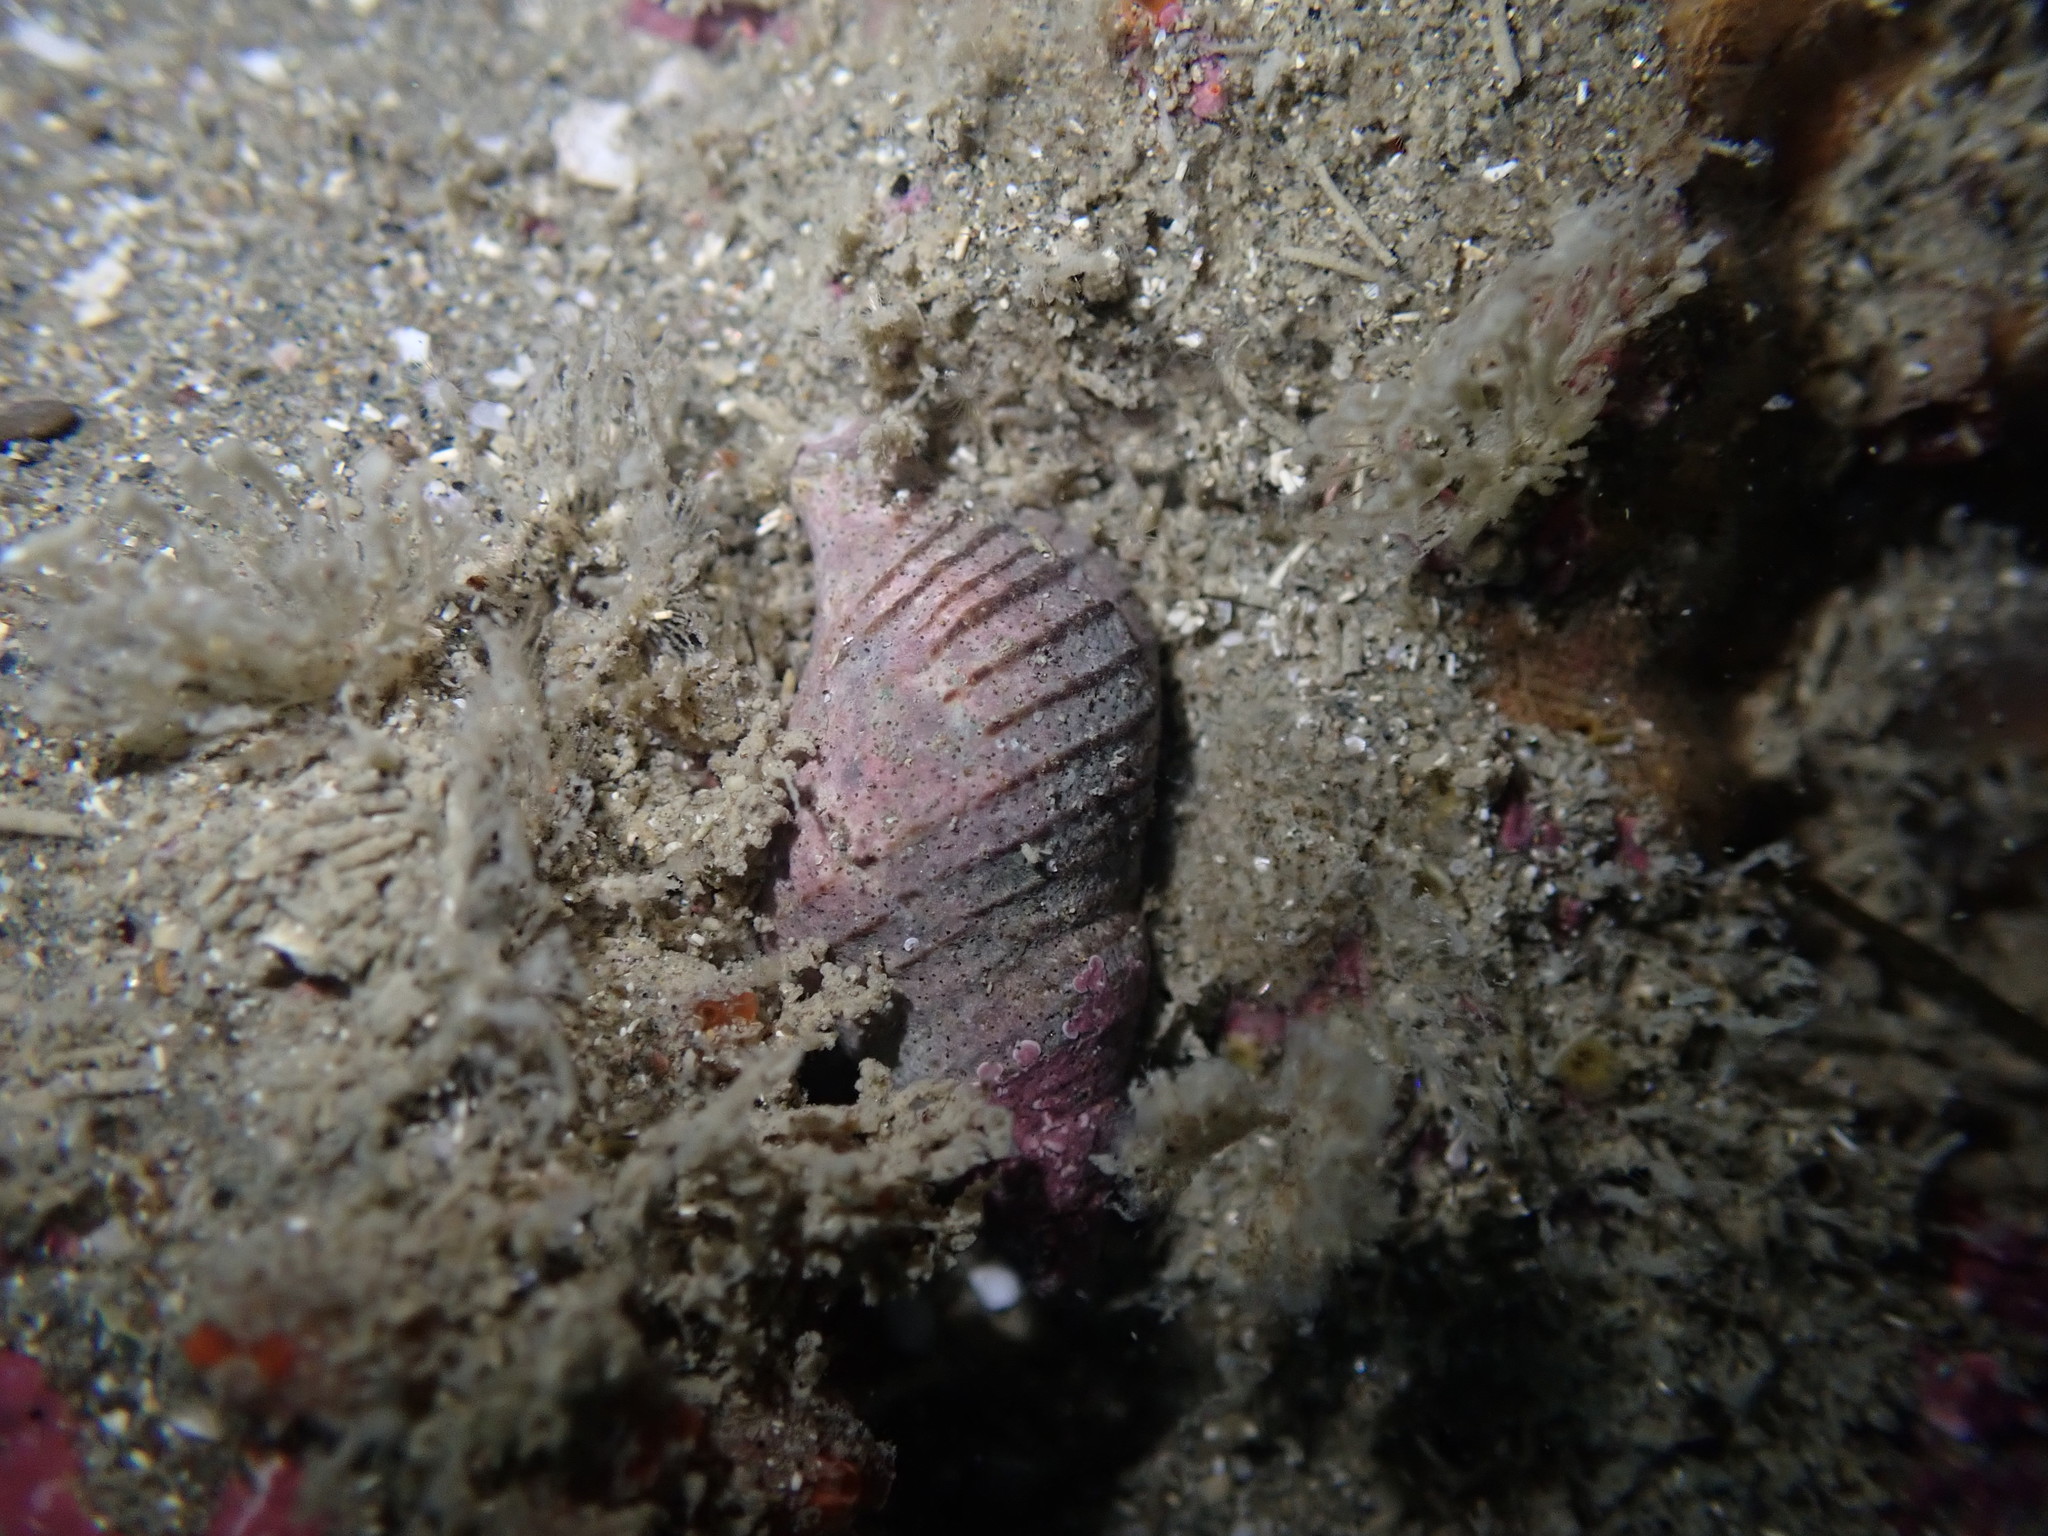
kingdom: Animalia
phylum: Mollusca
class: Gastropoda
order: Neogastropoda
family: Tudiclidae
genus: Buccinulum
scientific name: Buccinulum linea
